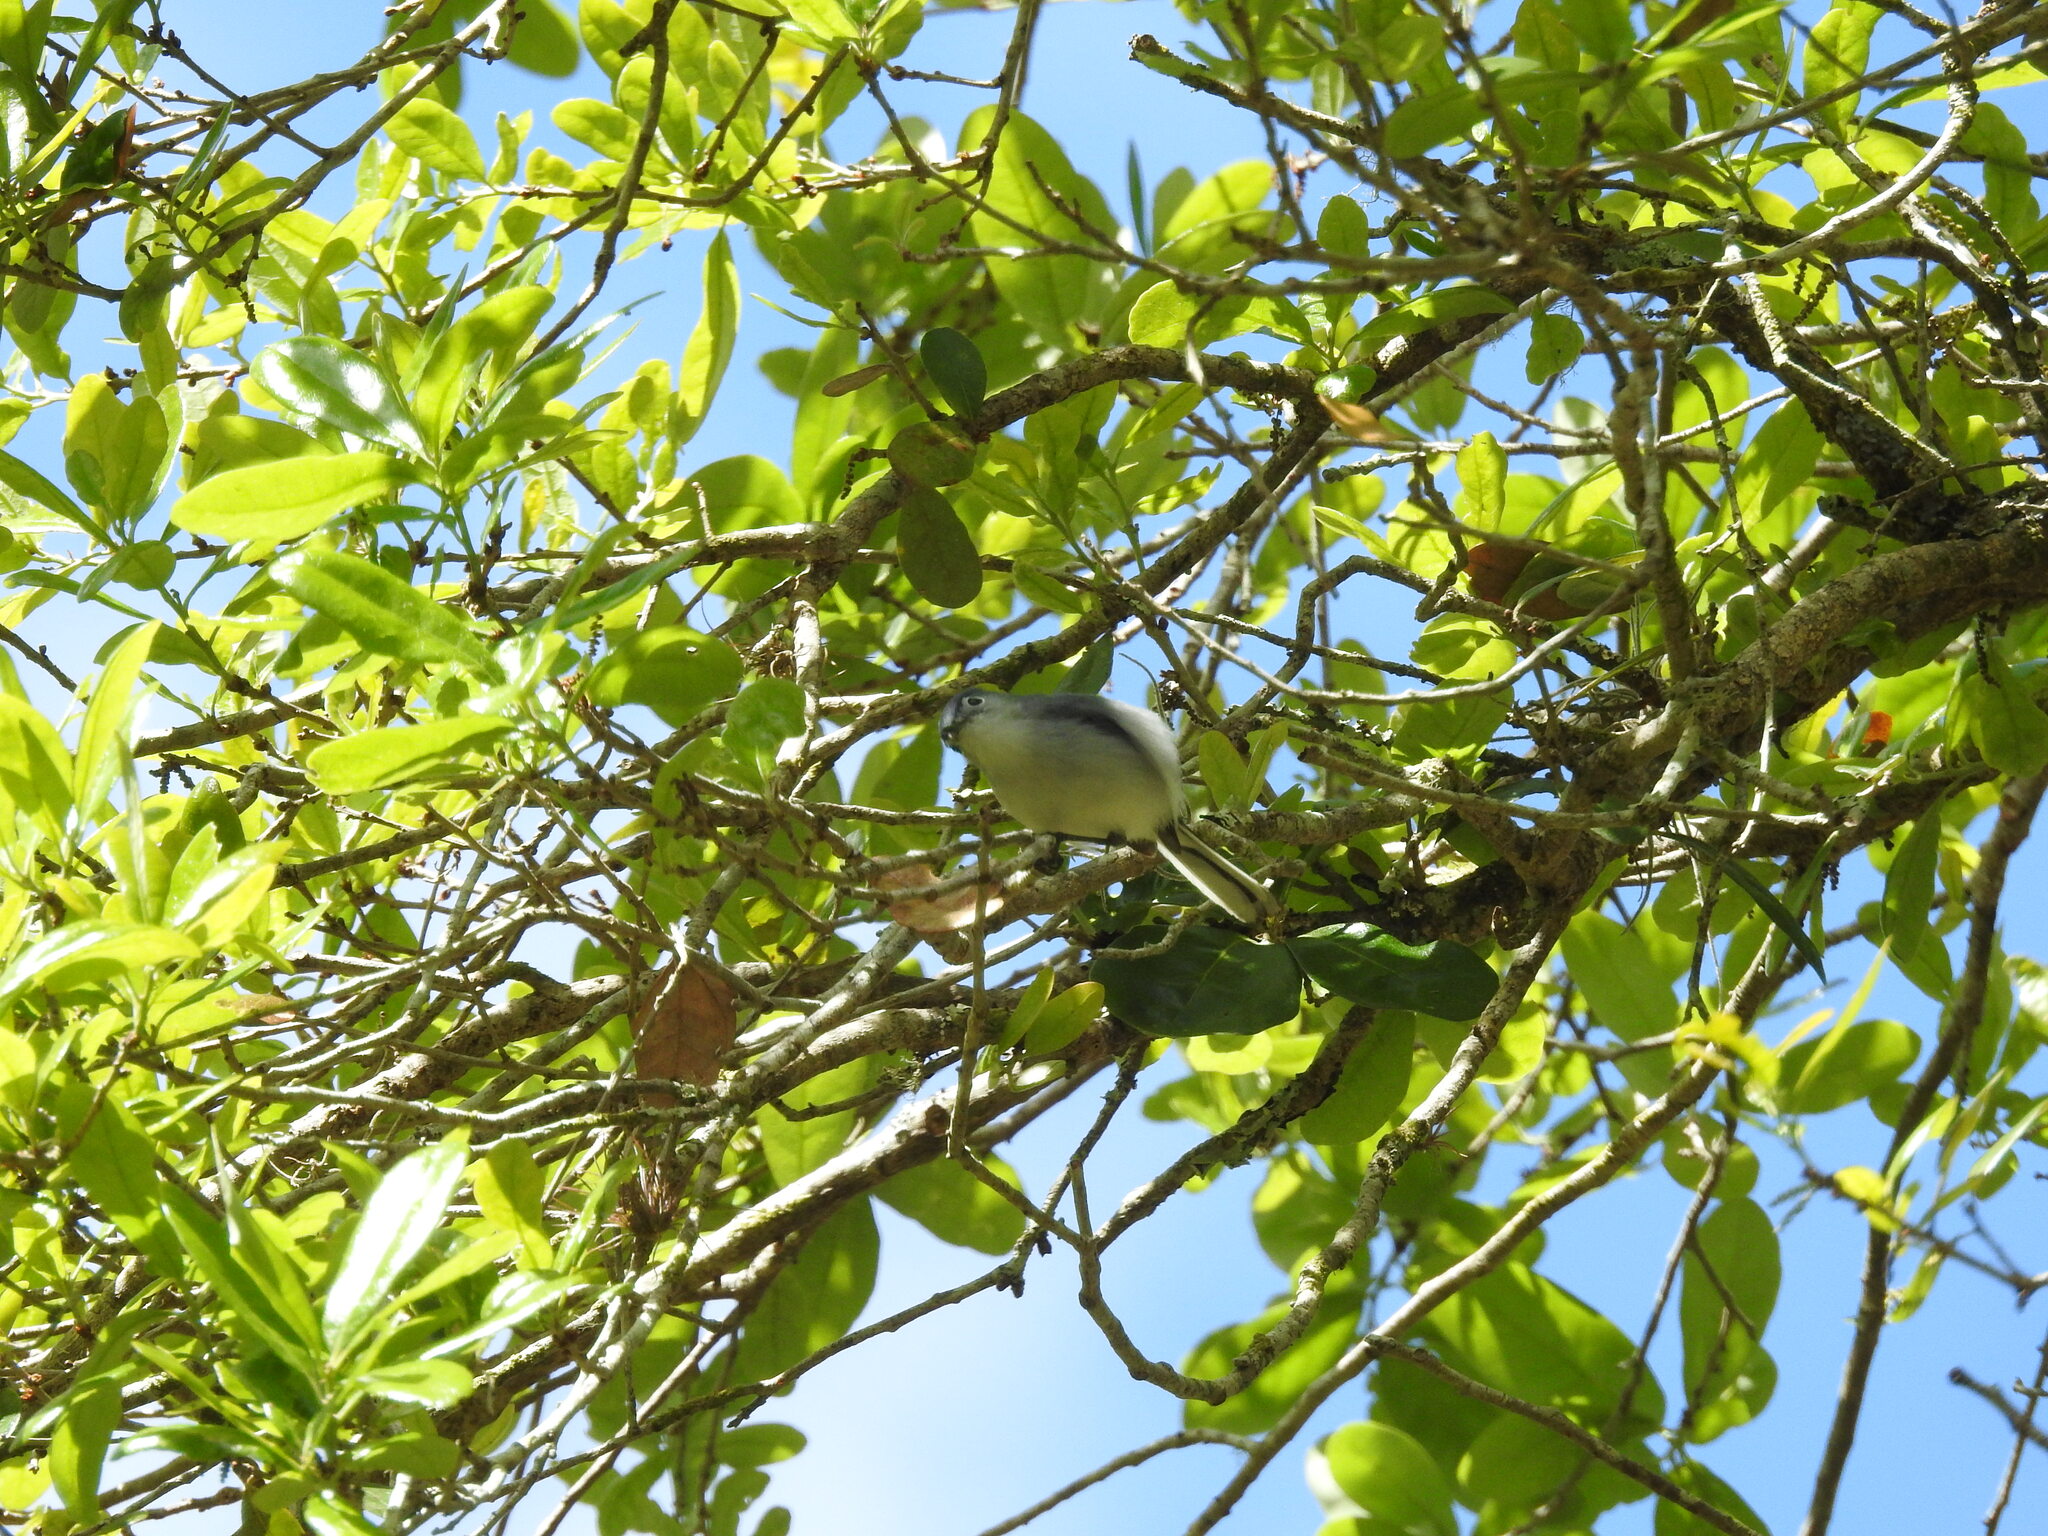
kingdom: Animalia
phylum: Chordata
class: Aves
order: Passeriformes
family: Polioptilidae
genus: Polioptila
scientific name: Polioptila caerulea
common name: Blue-gray gnatcatcher
